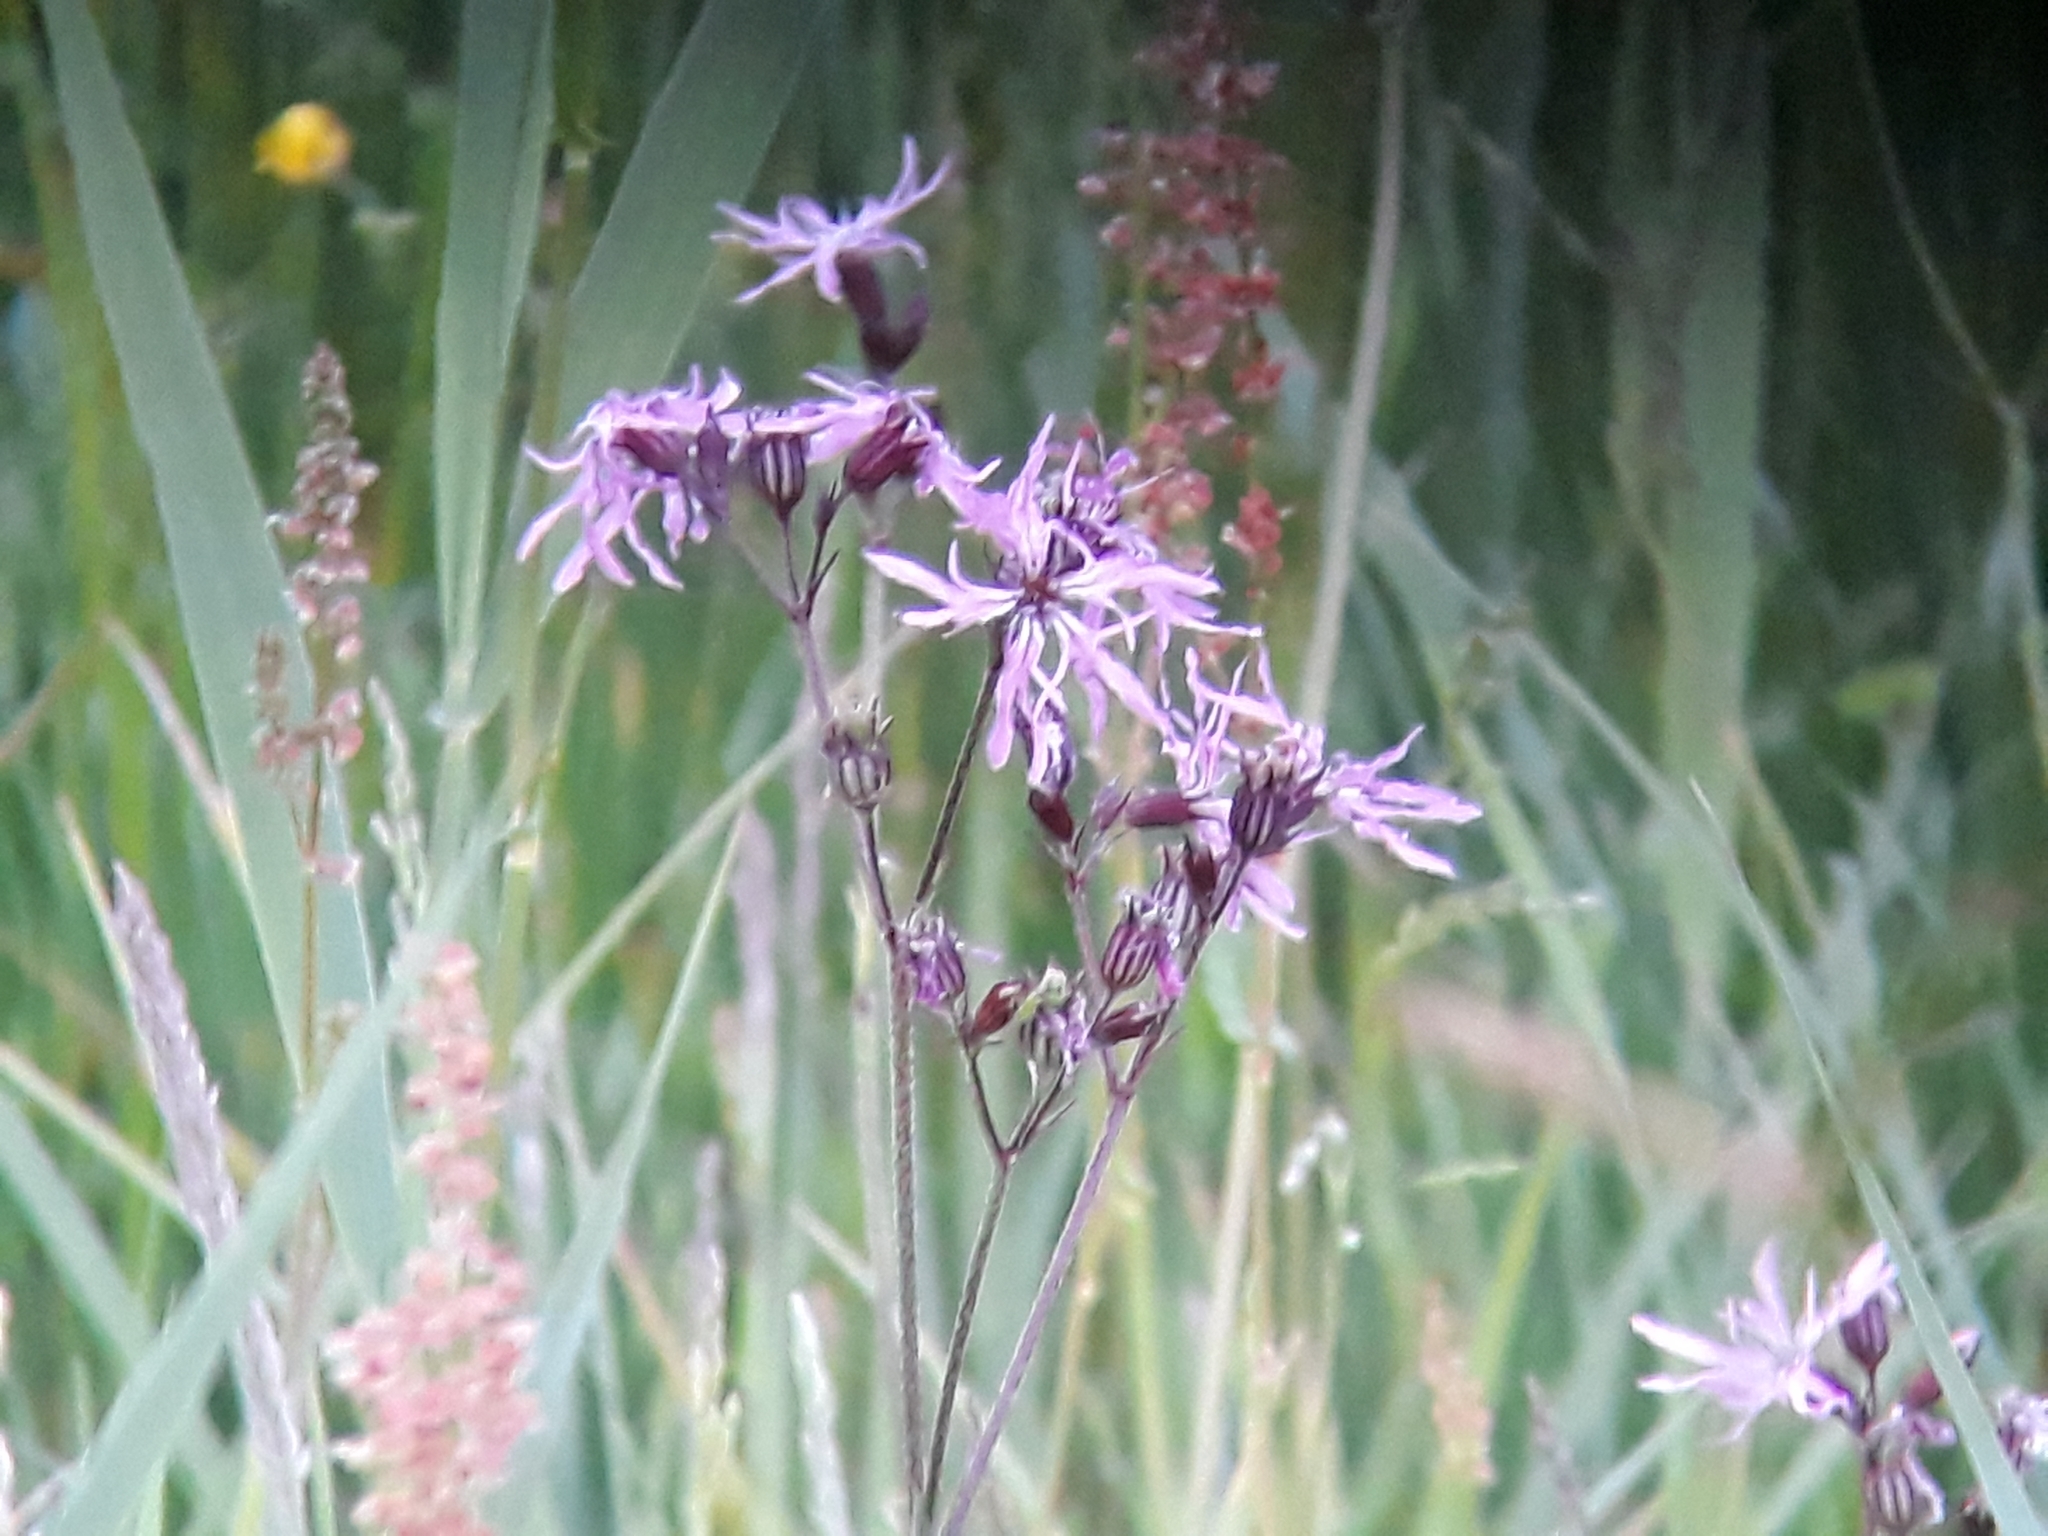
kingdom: Plantae
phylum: Tracheophyta
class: Magnoliopsida
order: Caryophyllales
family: Caryophyllaceae
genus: Silene
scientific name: Silene flos-cuculi
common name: Ragged-robin
